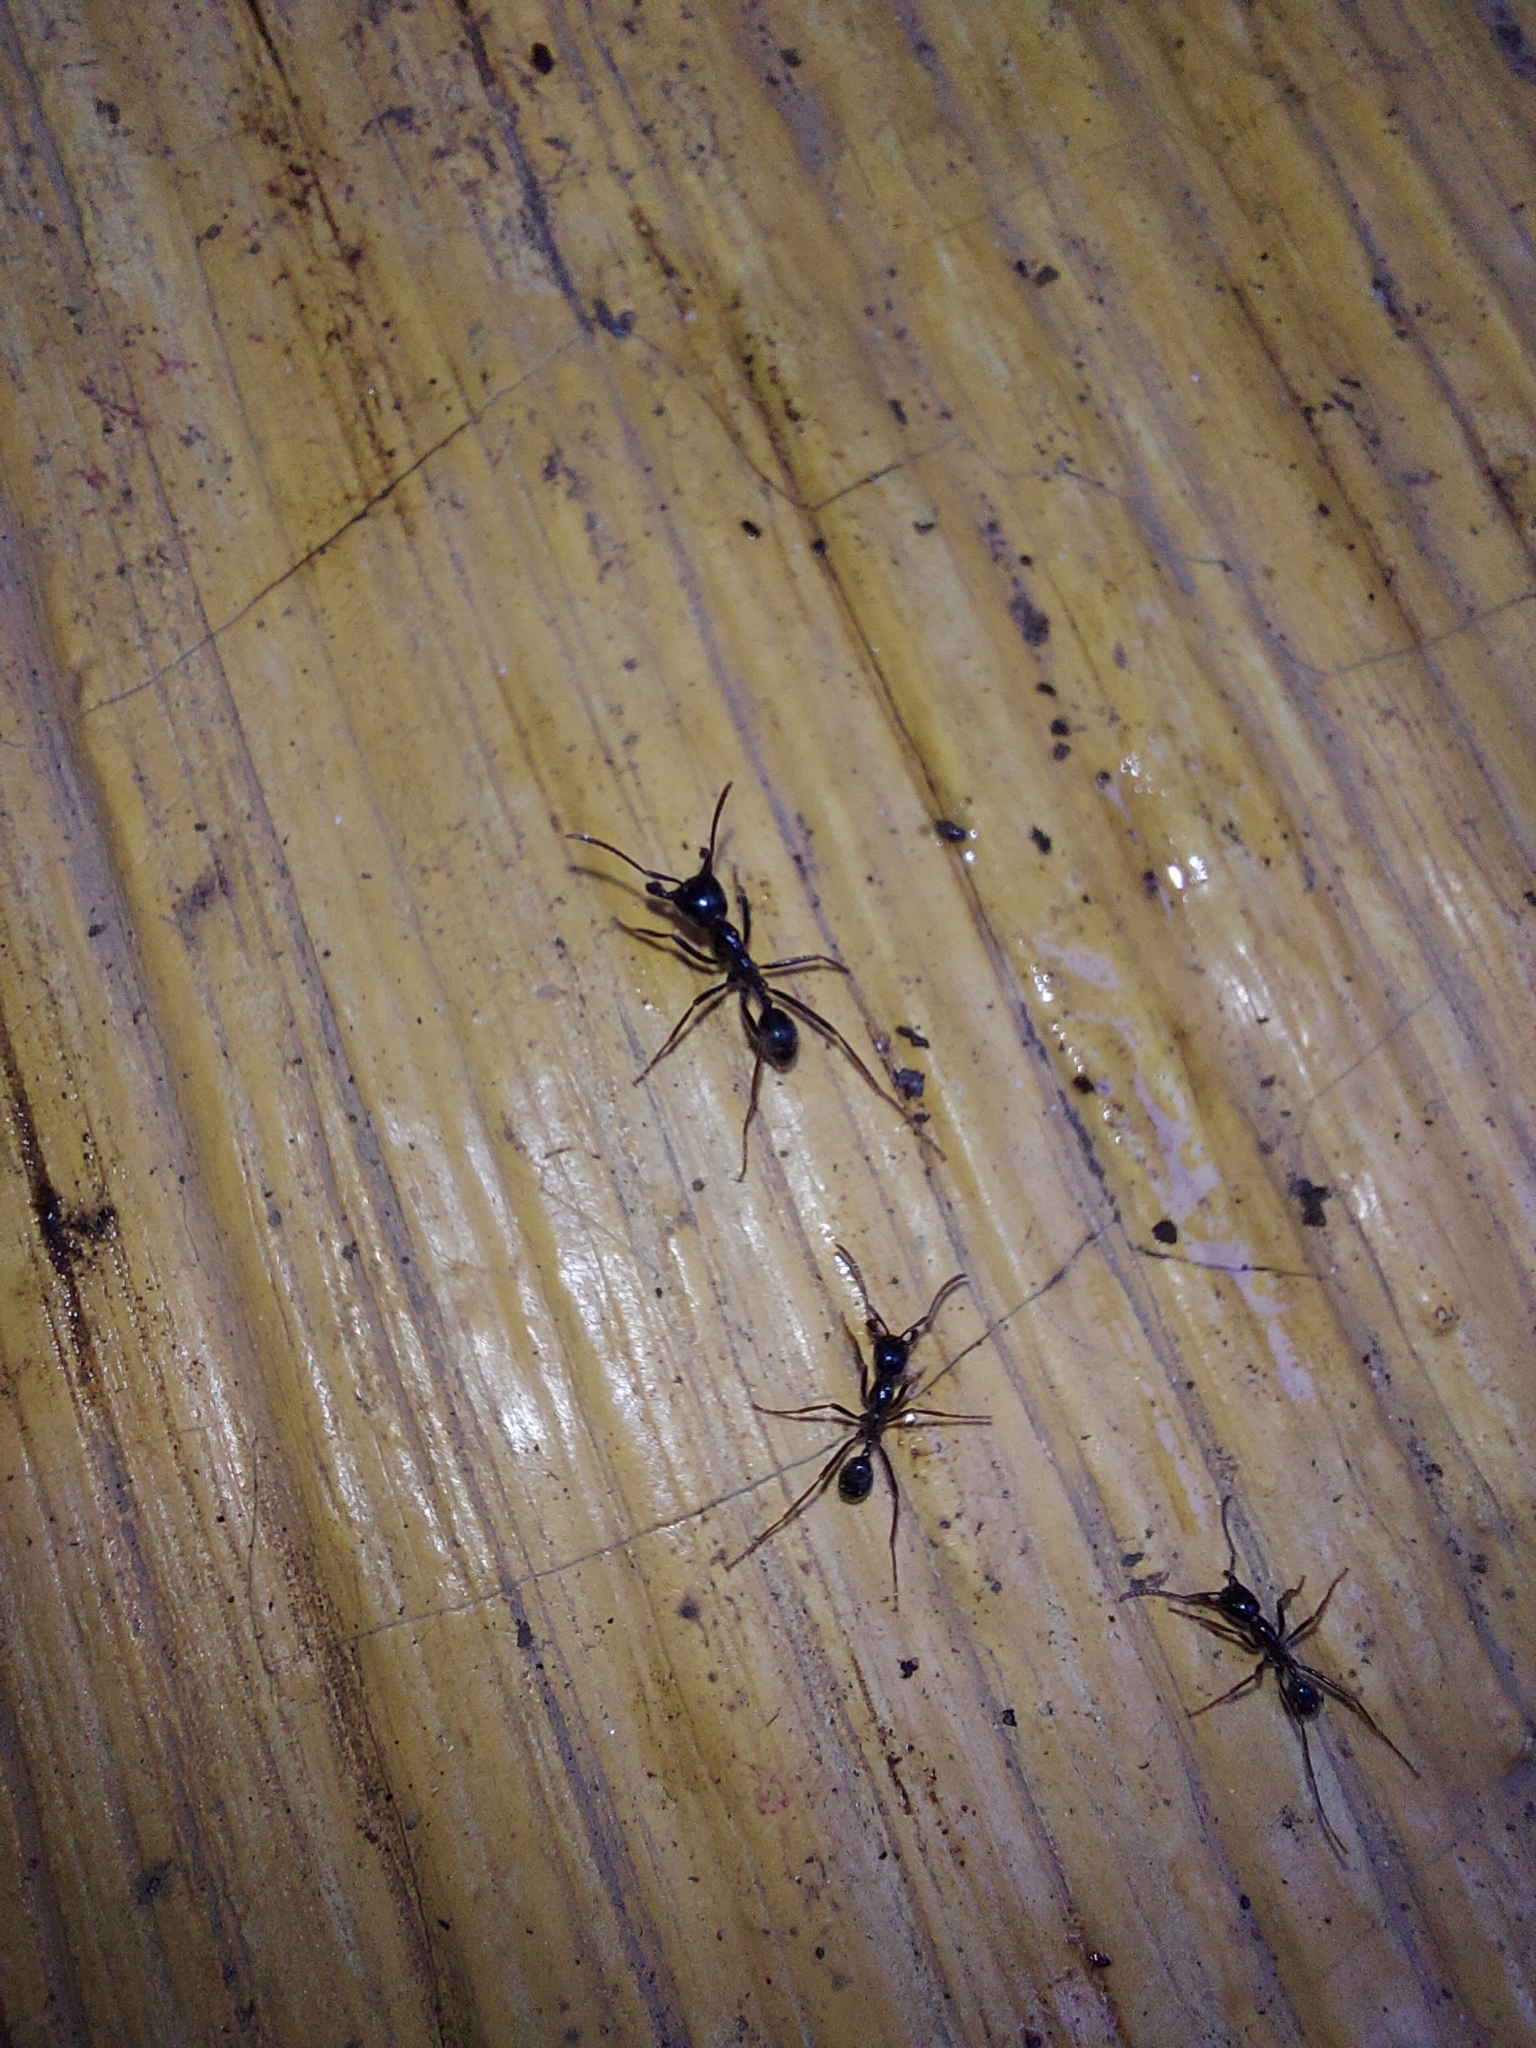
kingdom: Animalia
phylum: Arthropoda
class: Insecta
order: Hymenoptera
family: Formicidae
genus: Labidus
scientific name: Labidus praedator
